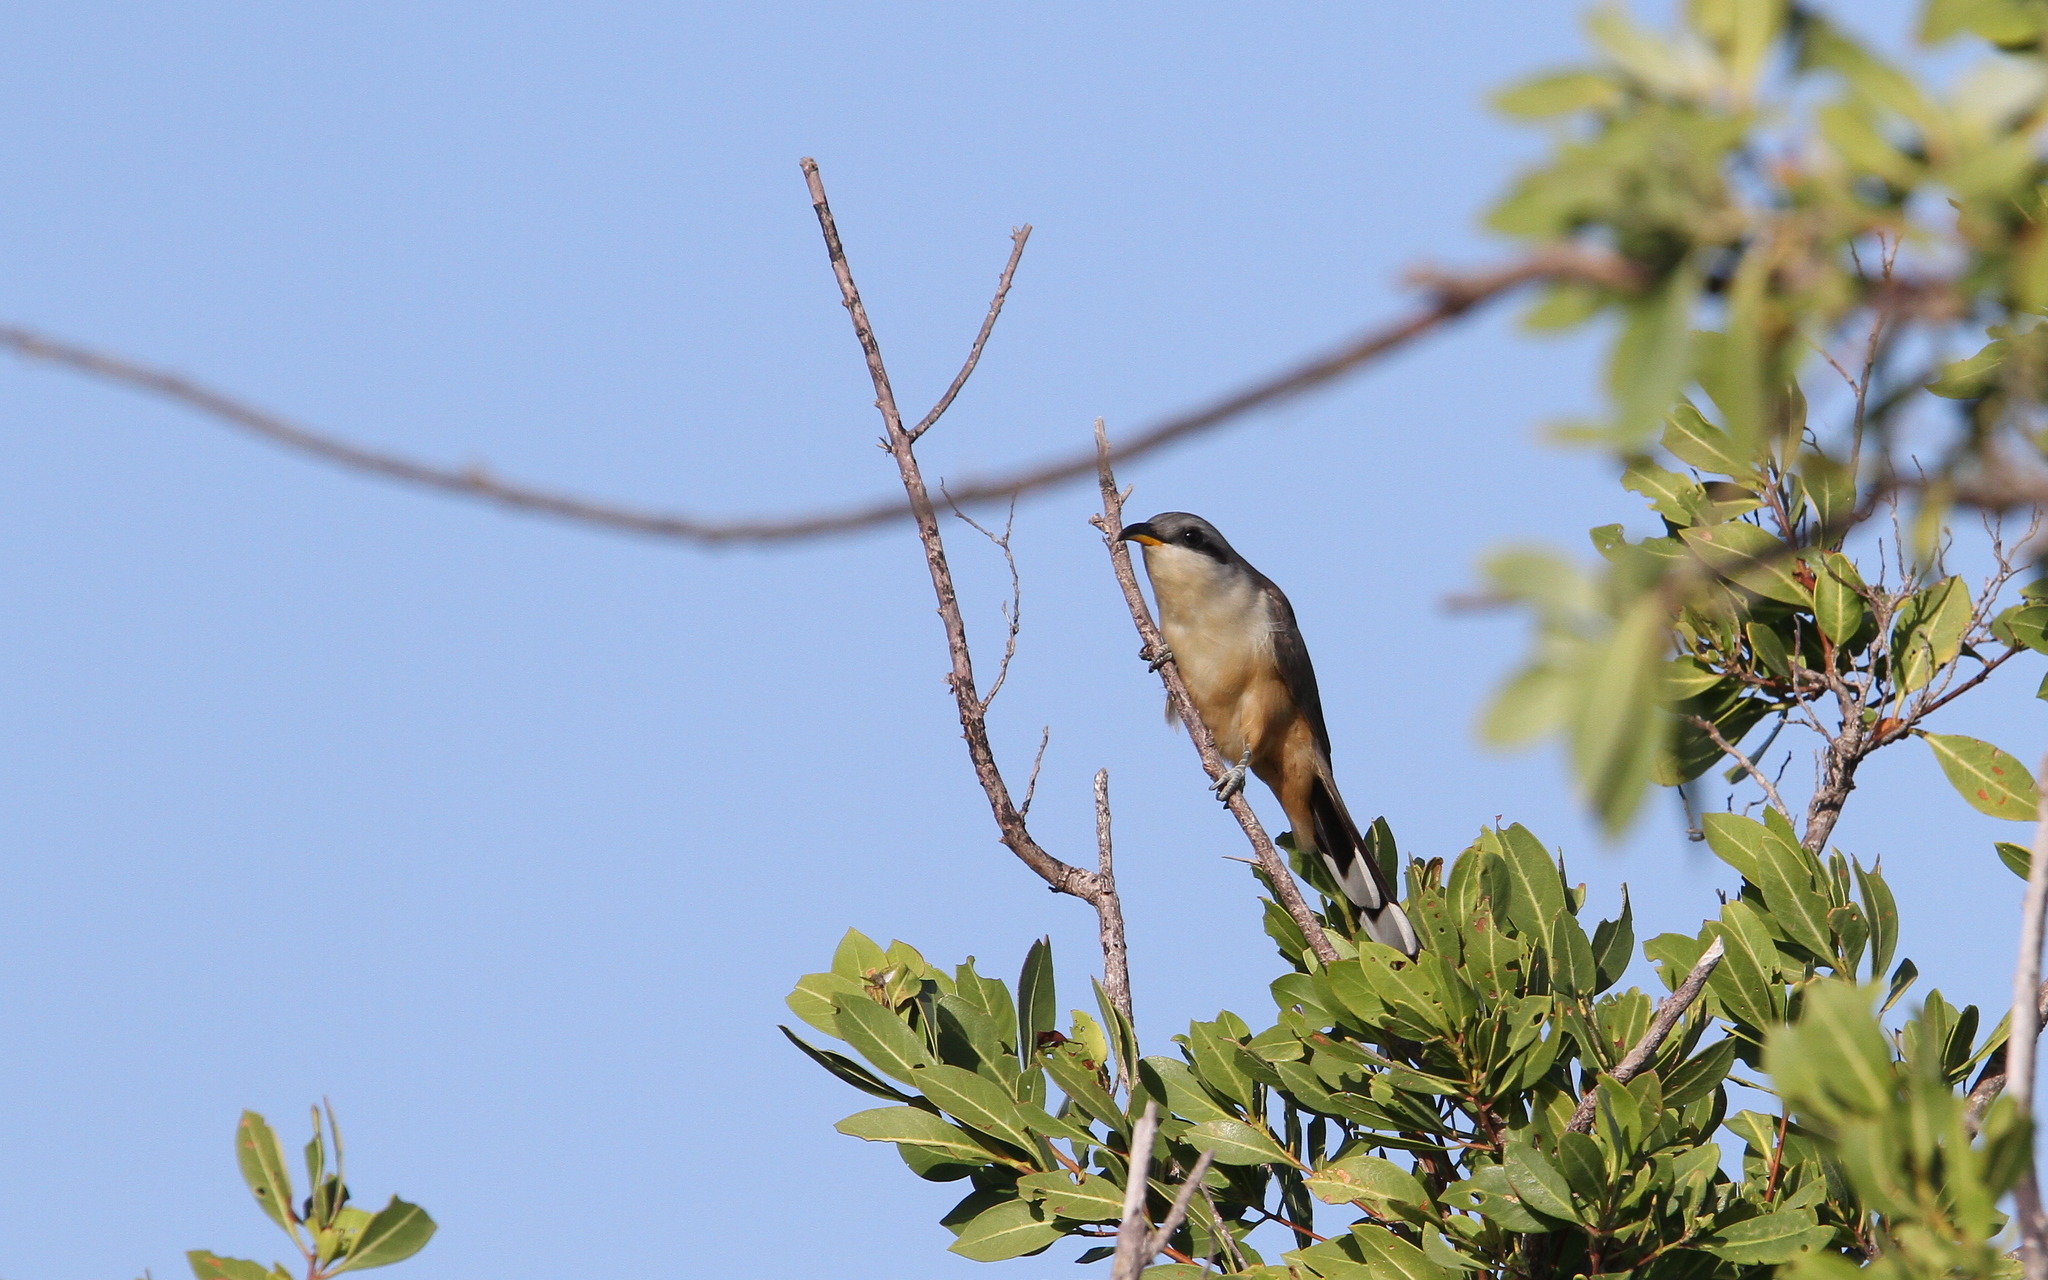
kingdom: Animalia
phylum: Chordata
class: Aves
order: Cuculiformes
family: Cuculidae
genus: Coccyzus
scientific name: Coccyzus minor
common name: Mangrove cuckoo
